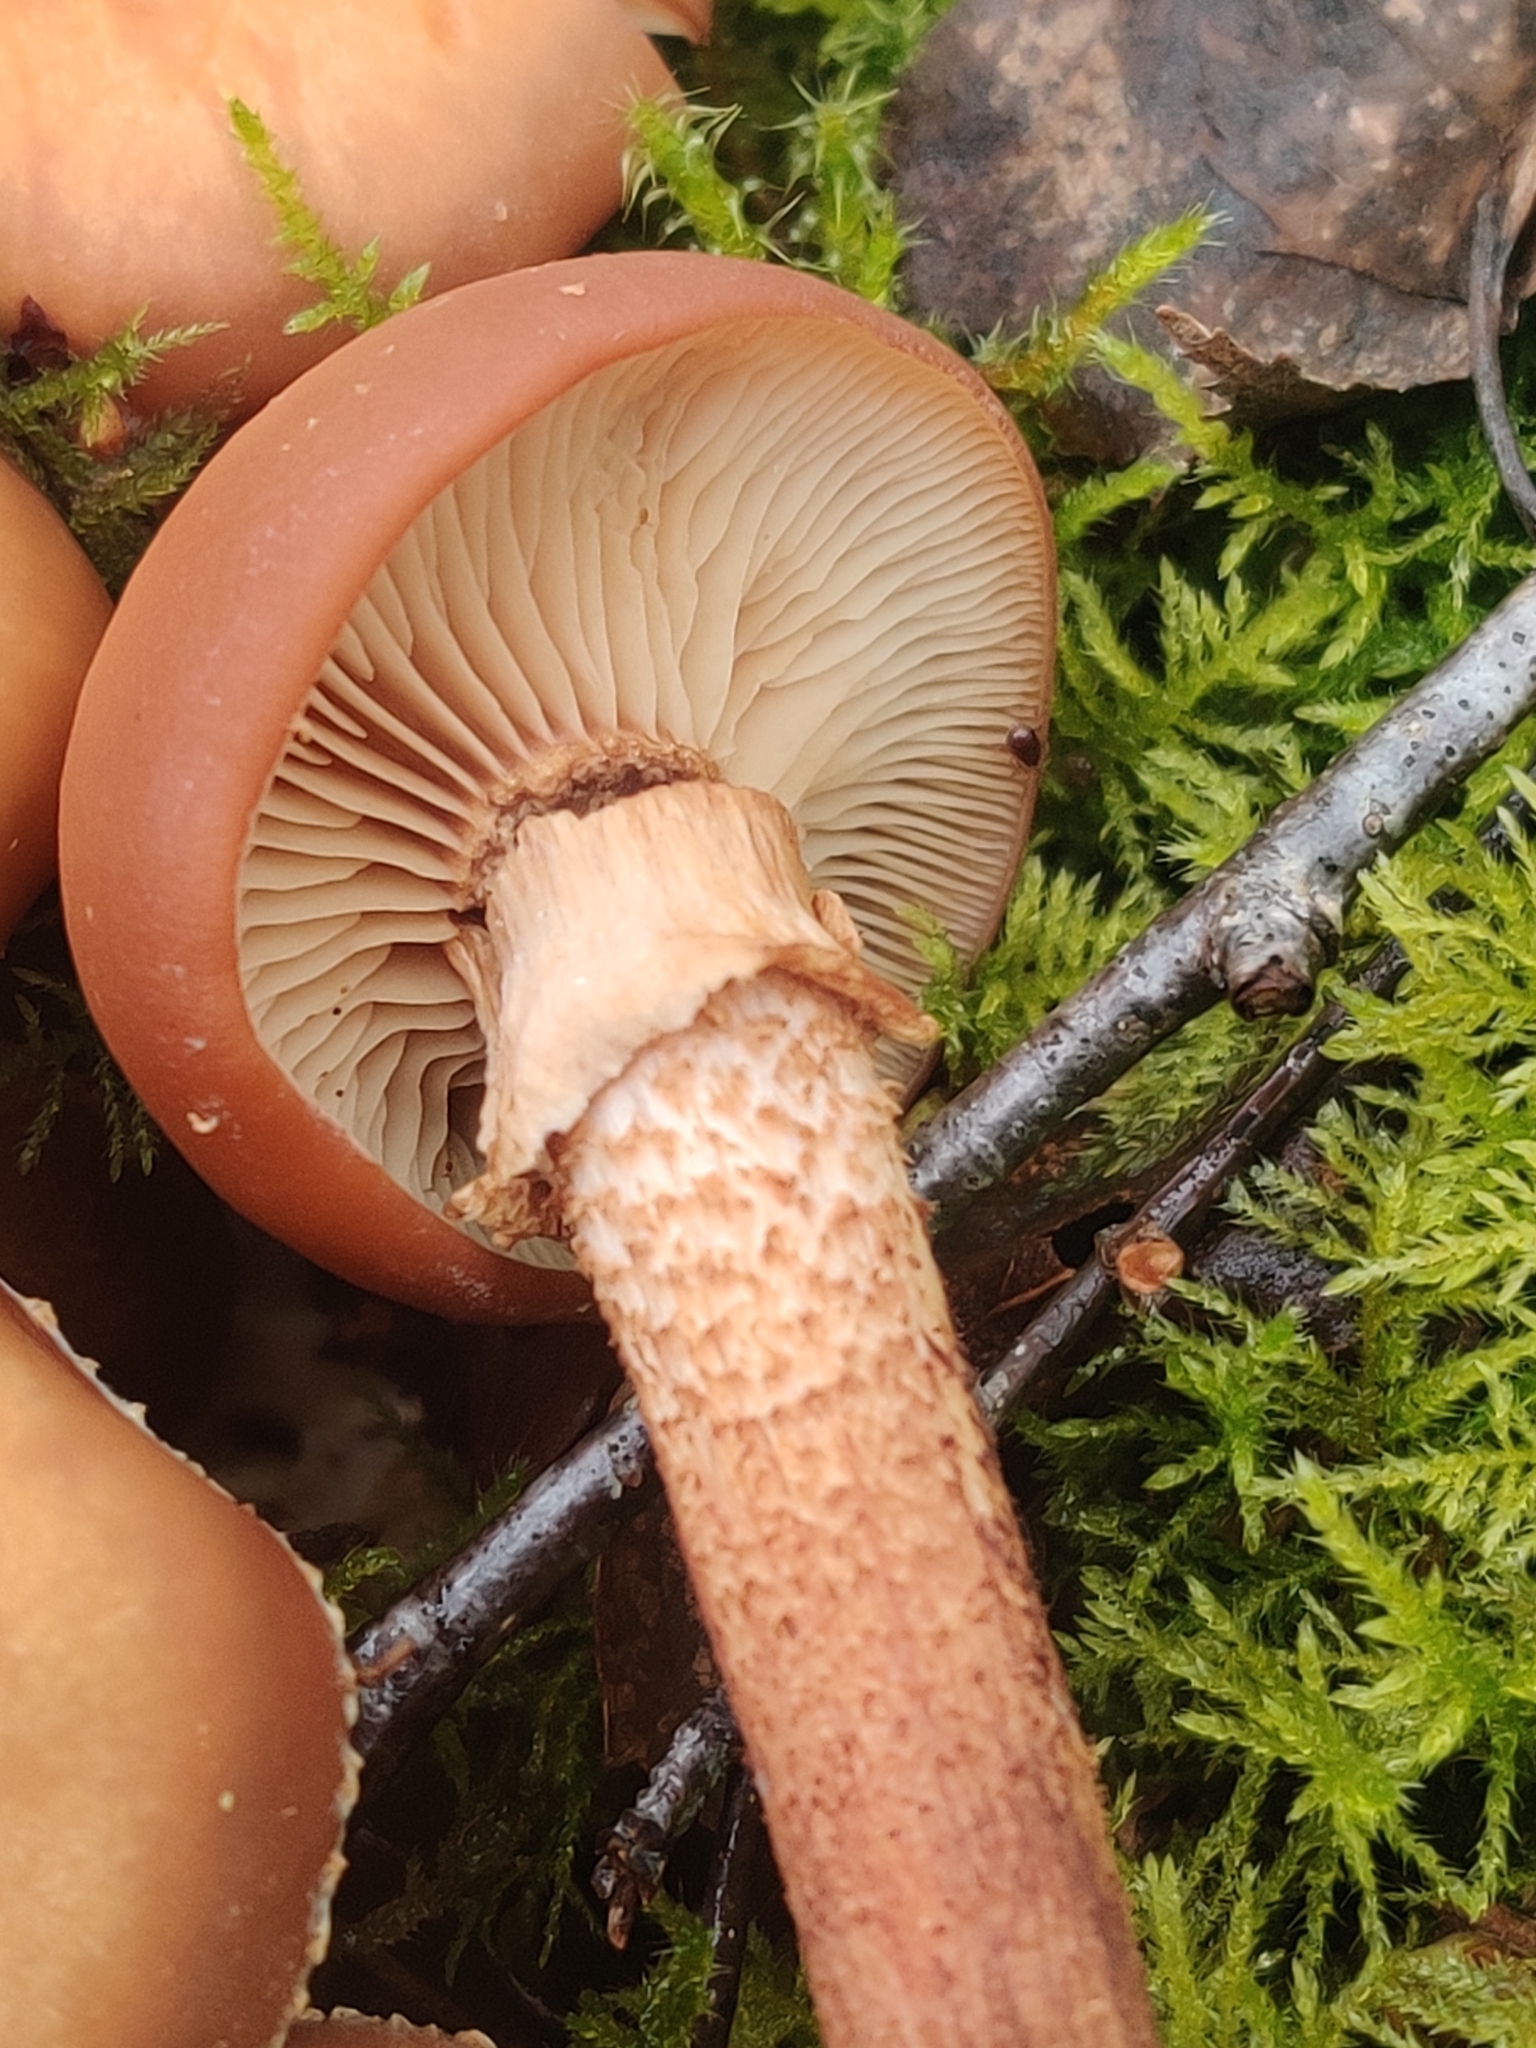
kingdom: Fungi
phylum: Basidiomycota
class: Agaricomycetes
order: Agaricales
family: Strophariaceae
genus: Kuehneromyces
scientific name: Kuehneromyces mutabilis
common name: Sheathed woodtuft
